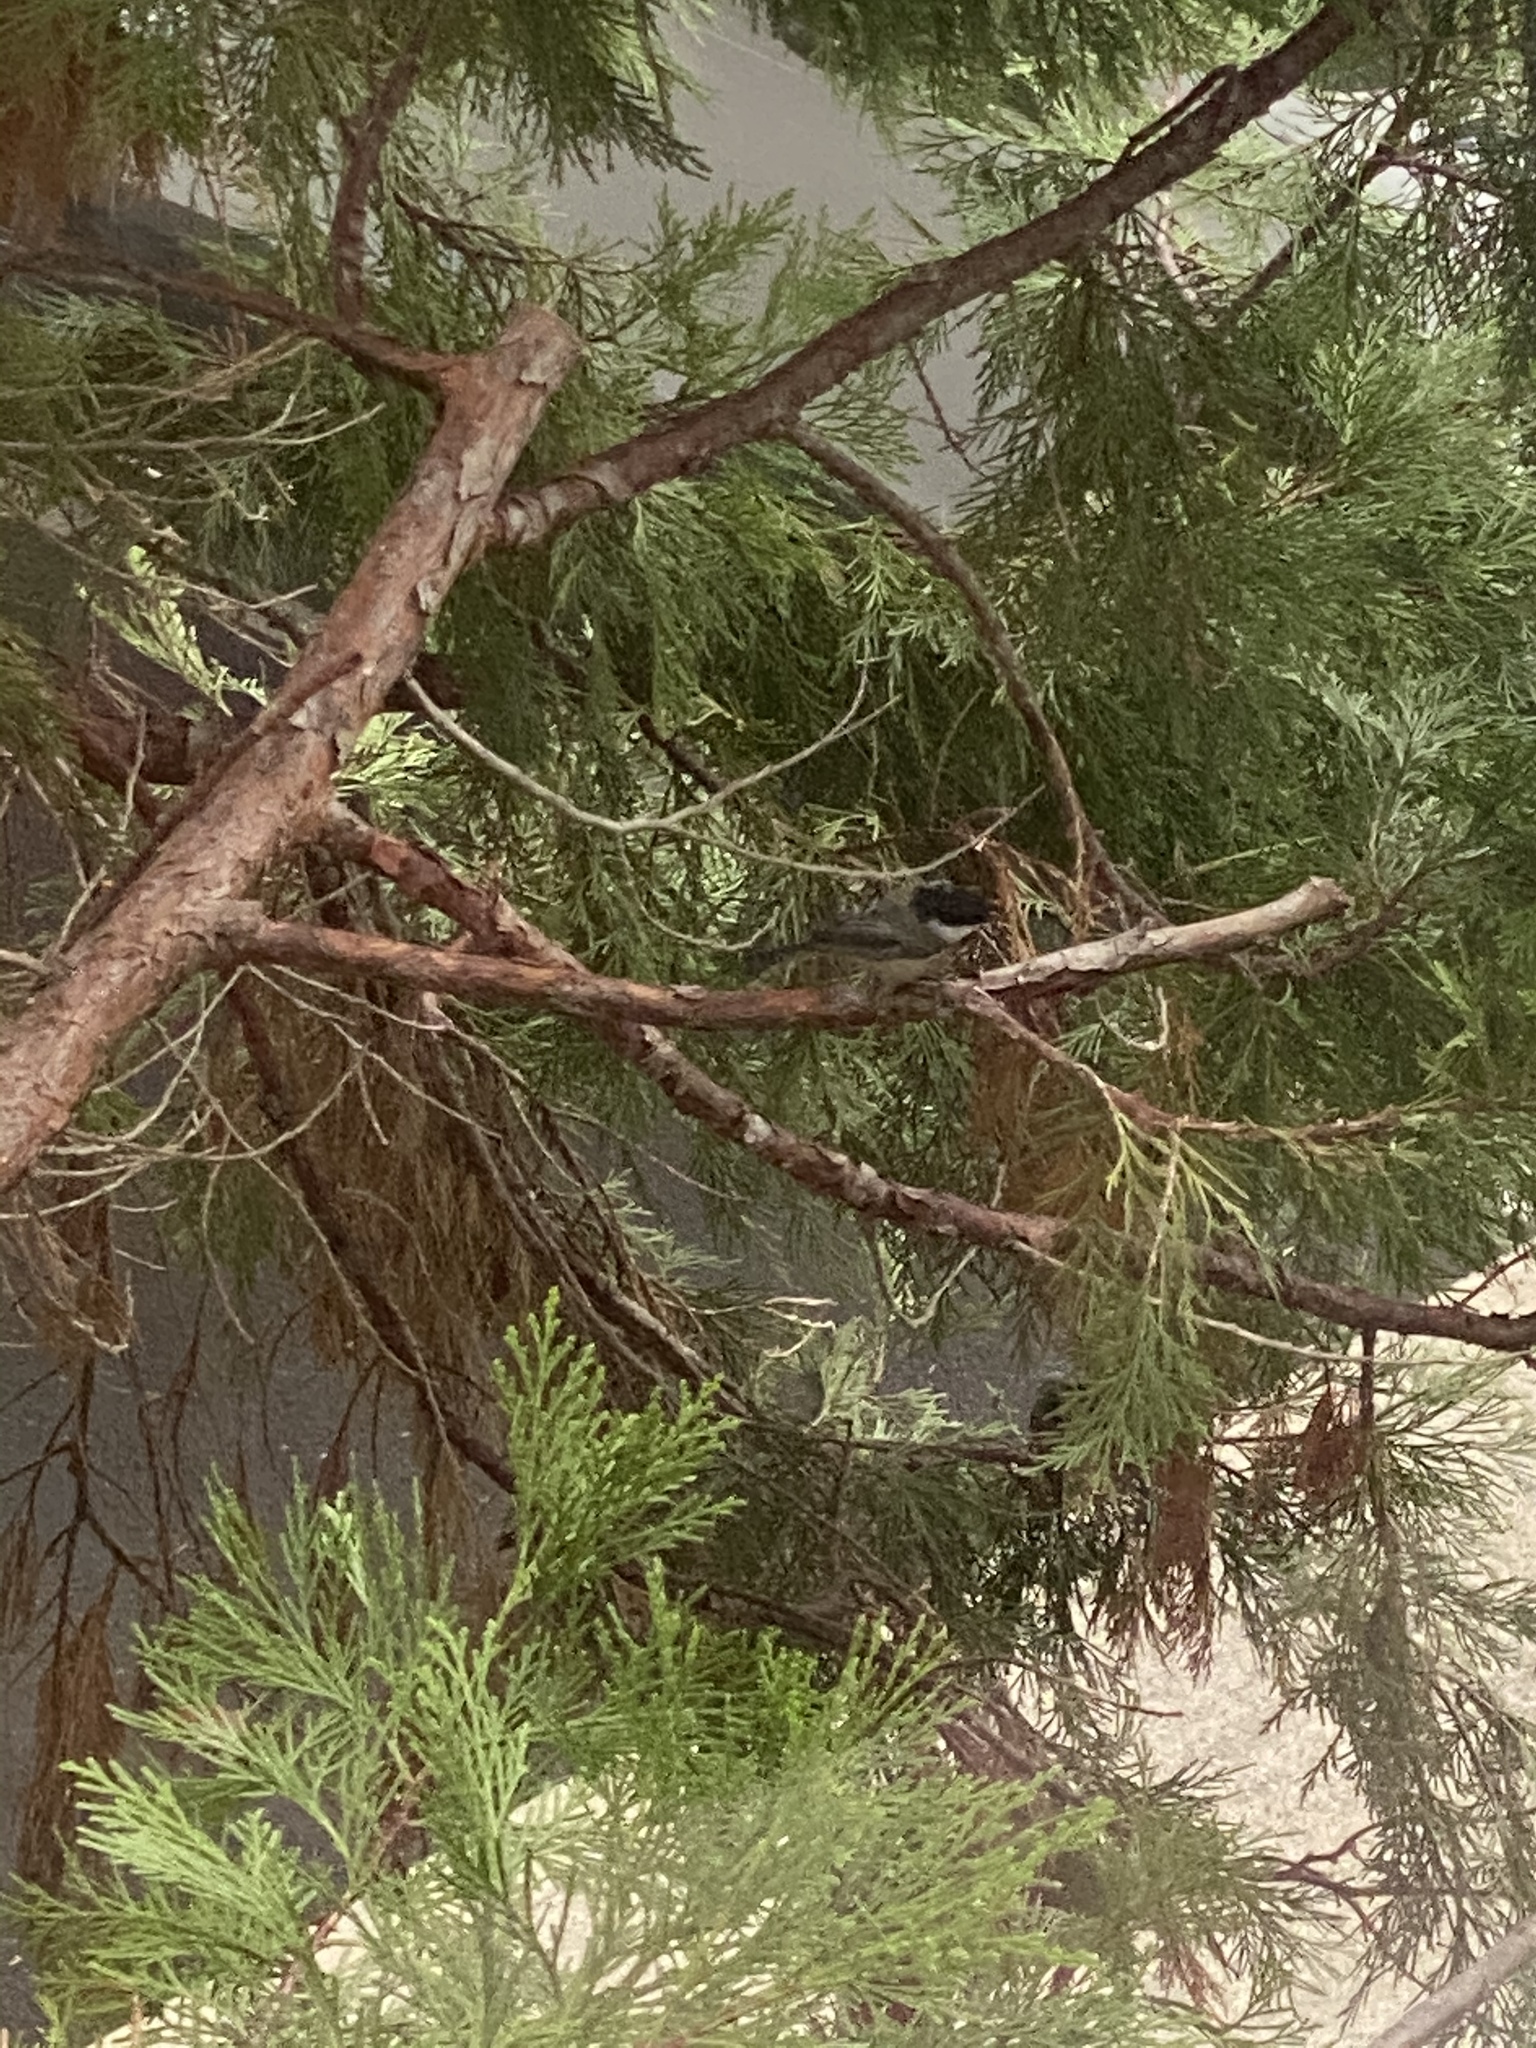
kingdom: Animalia
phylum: Chordata
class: Aves
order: Passeriformes
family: Paridae
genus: Poecile
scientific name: Poecile atricapillus
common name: Black-capped chickadee
